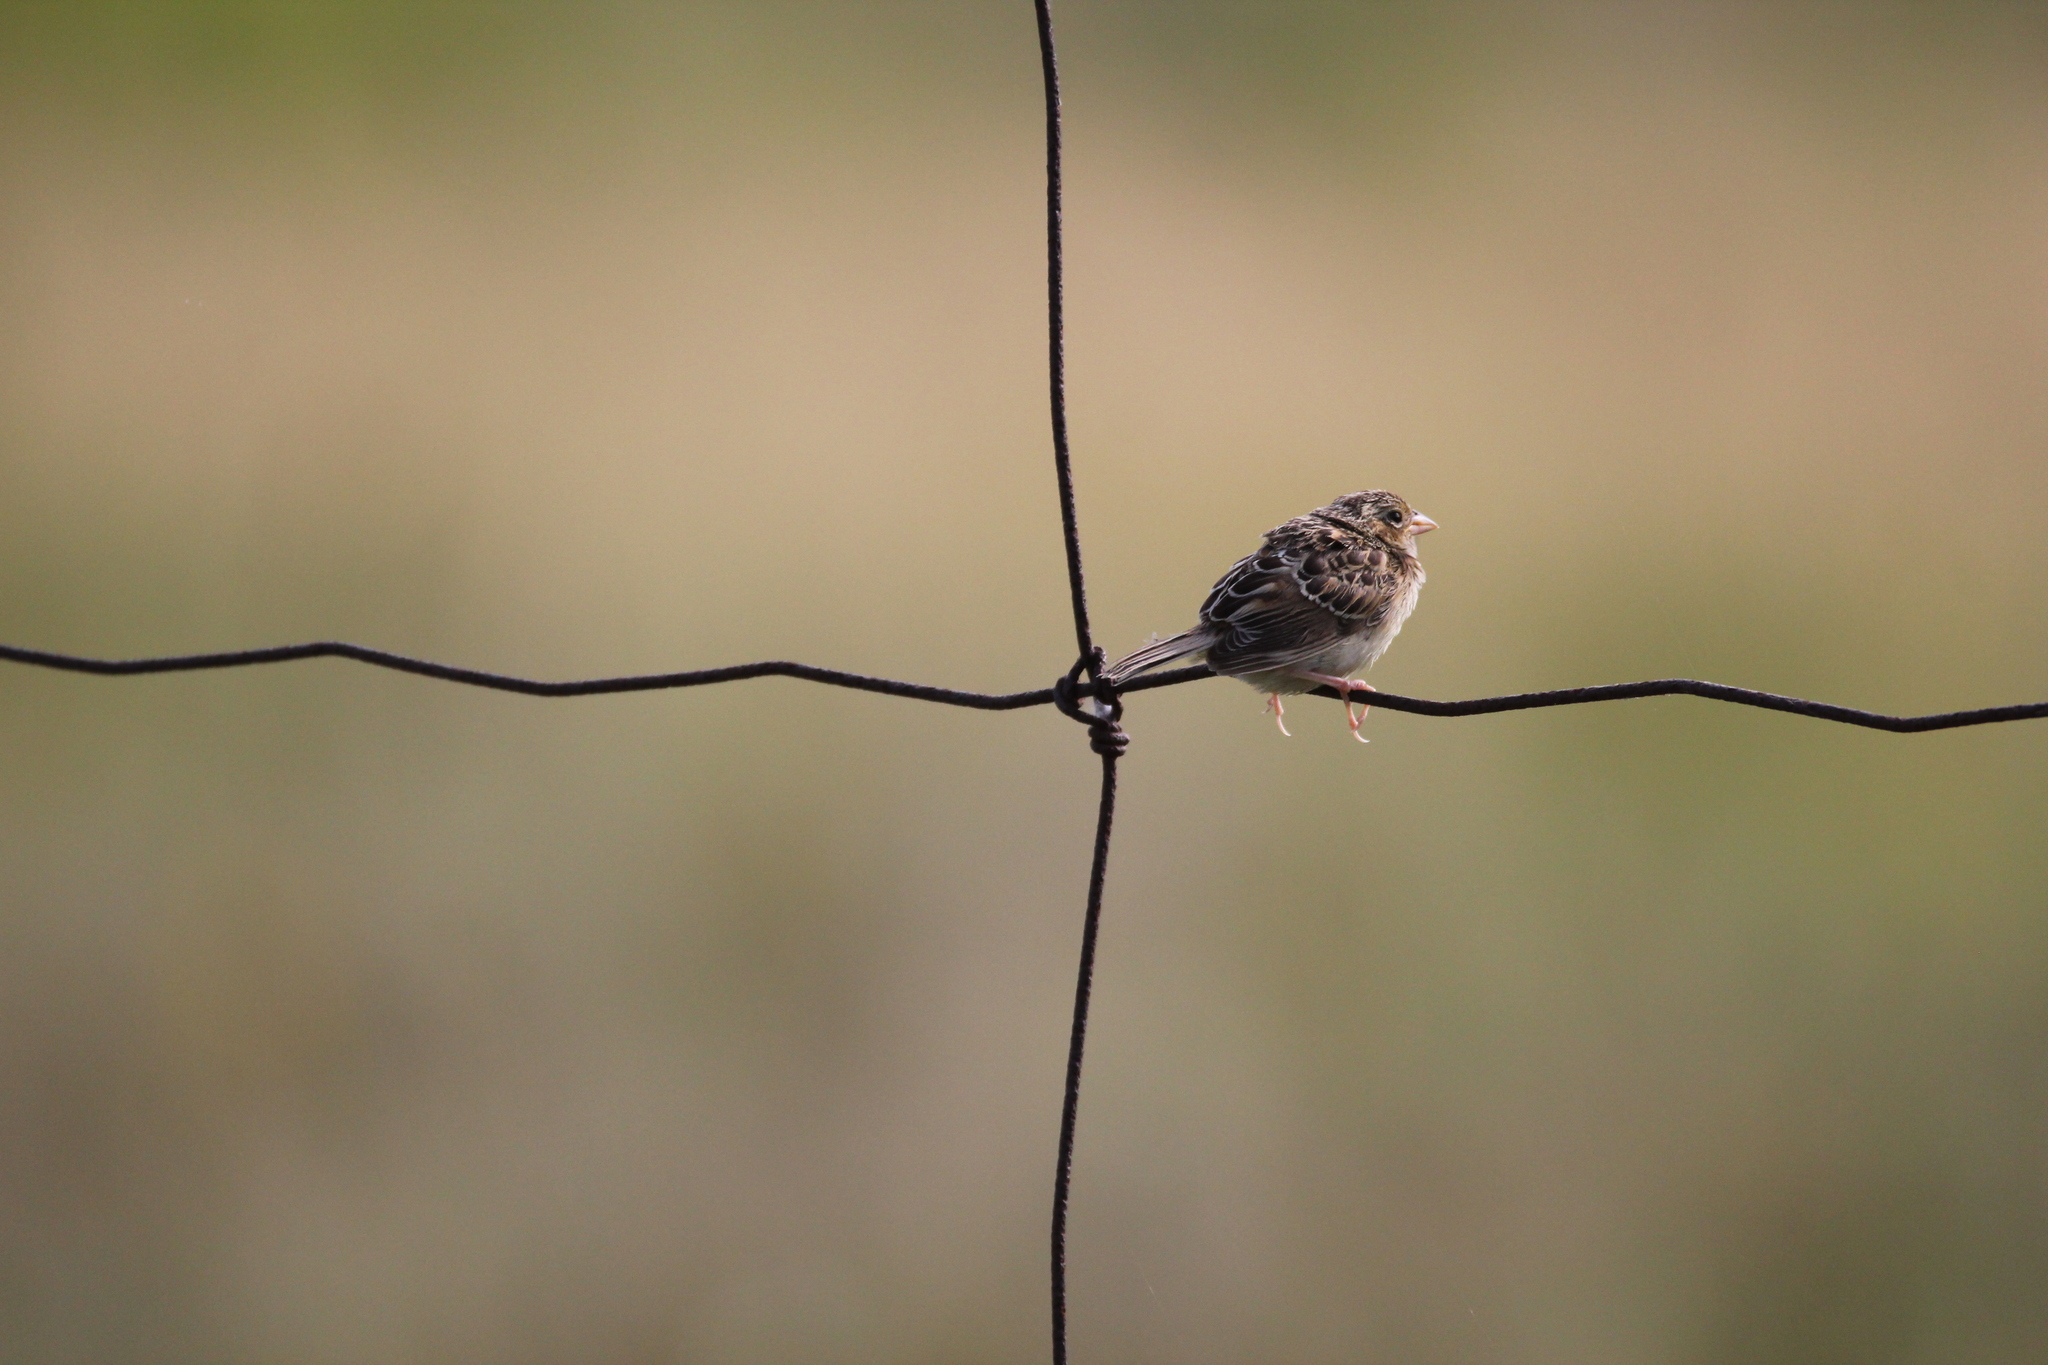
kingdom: Animalia
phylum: Chordata
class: Aves
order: Passeriformes
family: Passerellidae
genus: Ammodramus
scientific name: Ammodramus savannarum
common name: Grasshopper sparrow
